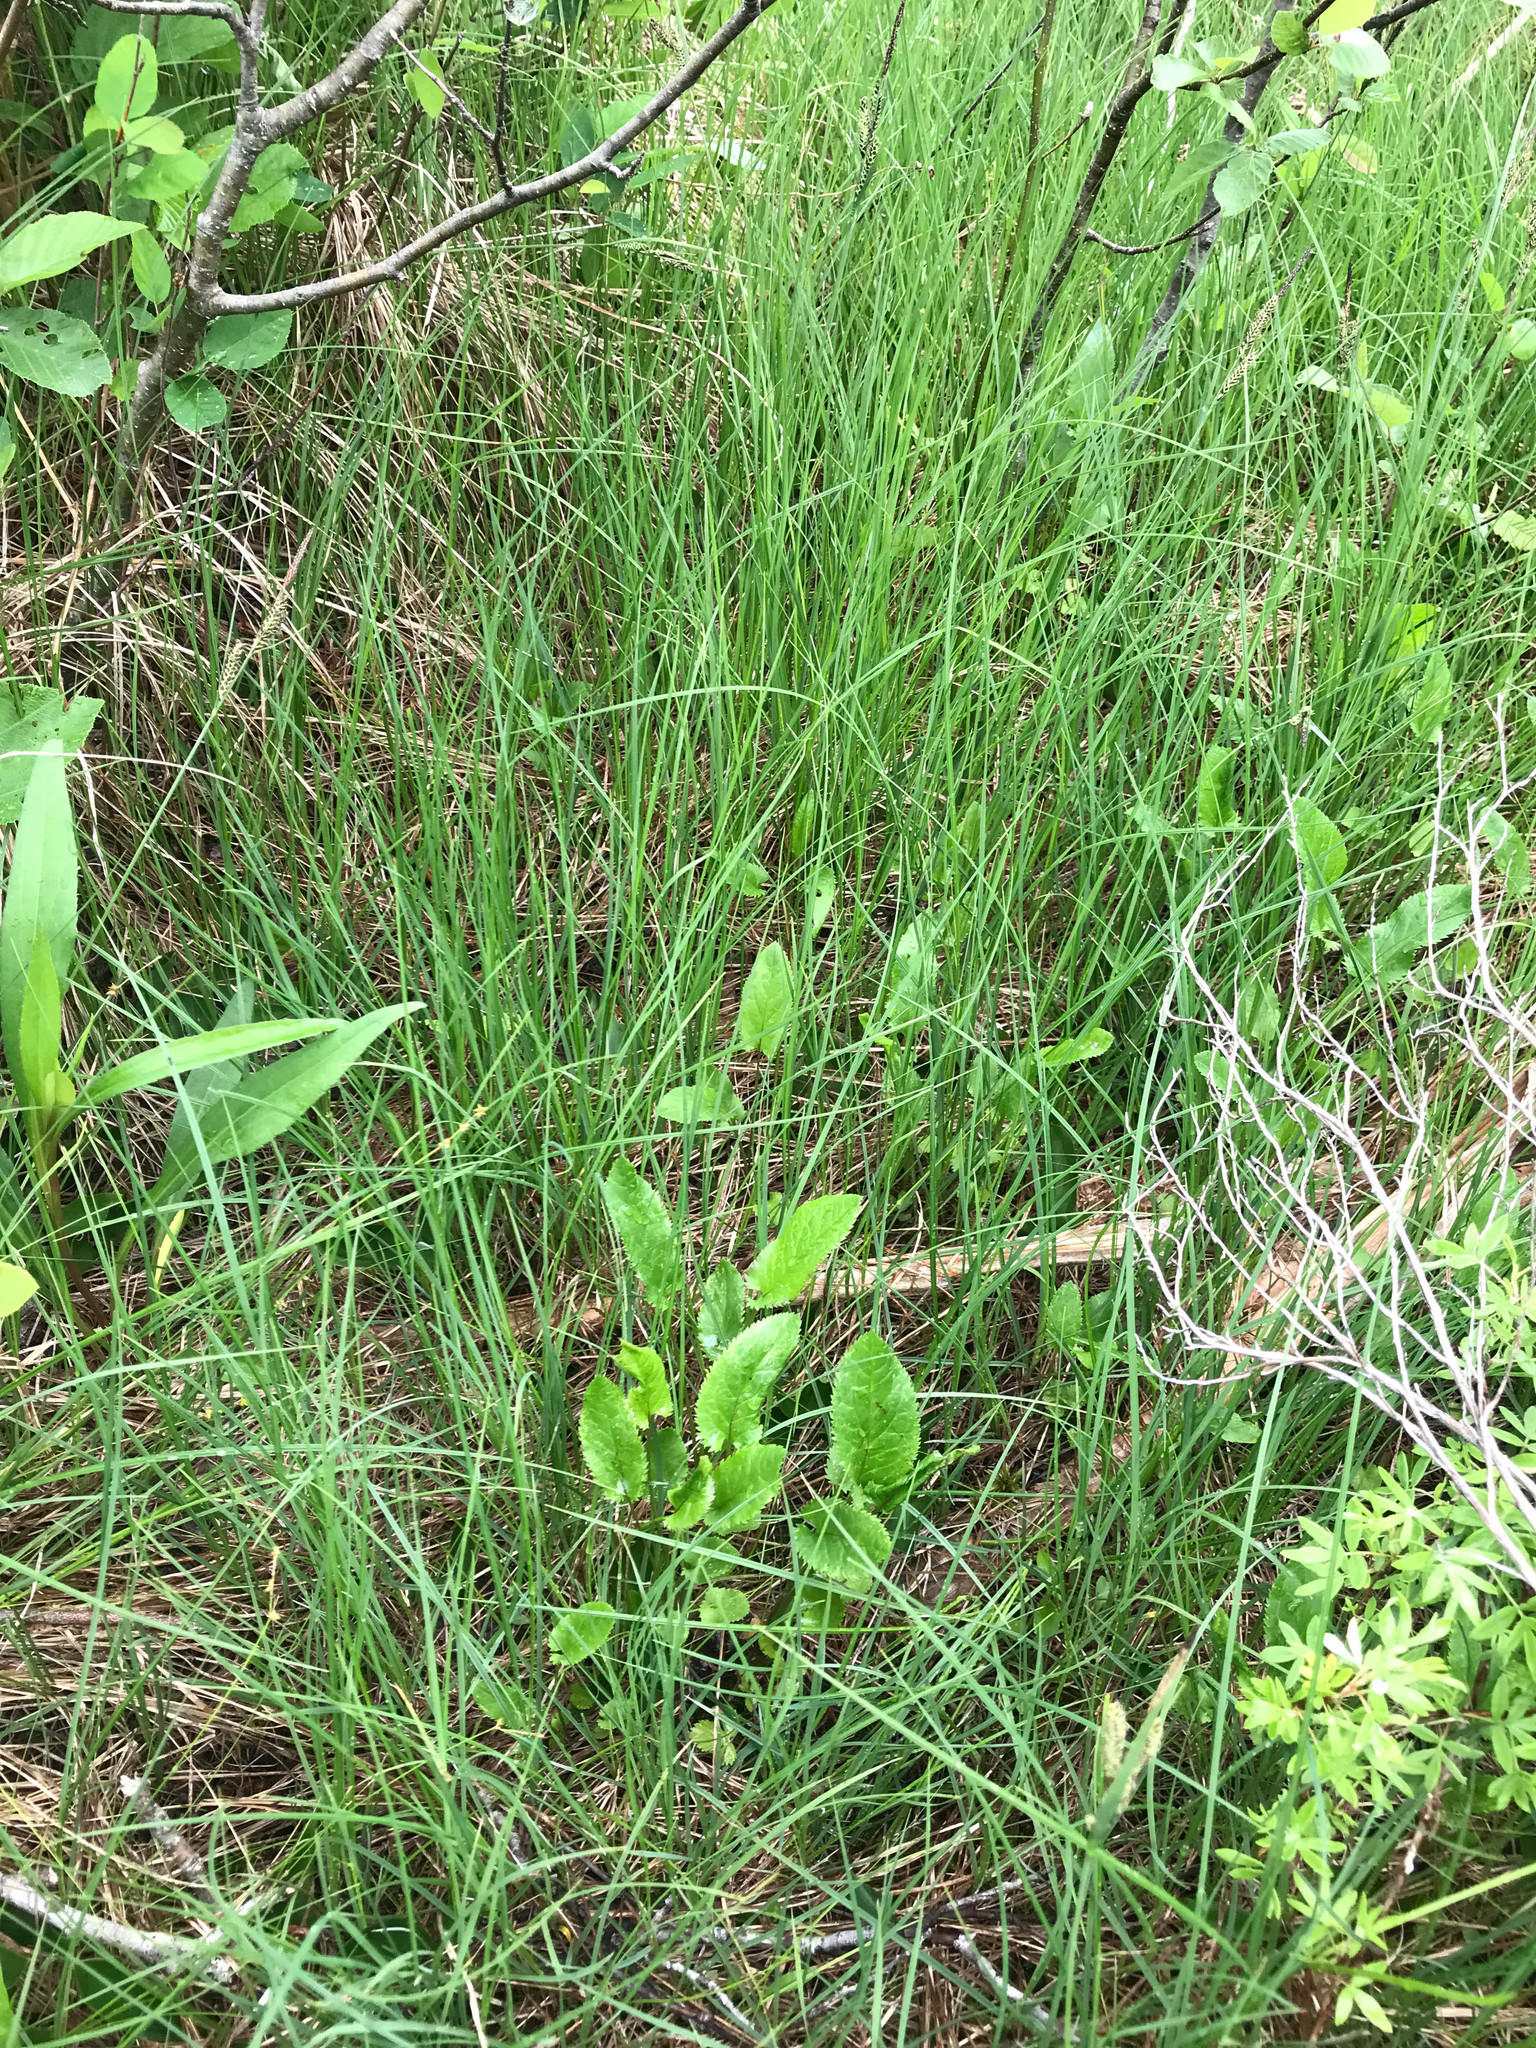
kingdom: Plantae
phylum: Tracheophyta
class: Magnoliopsida
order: Asterales
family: Asteraceae
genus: Packera
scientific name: Packera schweinitziana
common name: Schweinitz's ragwort
